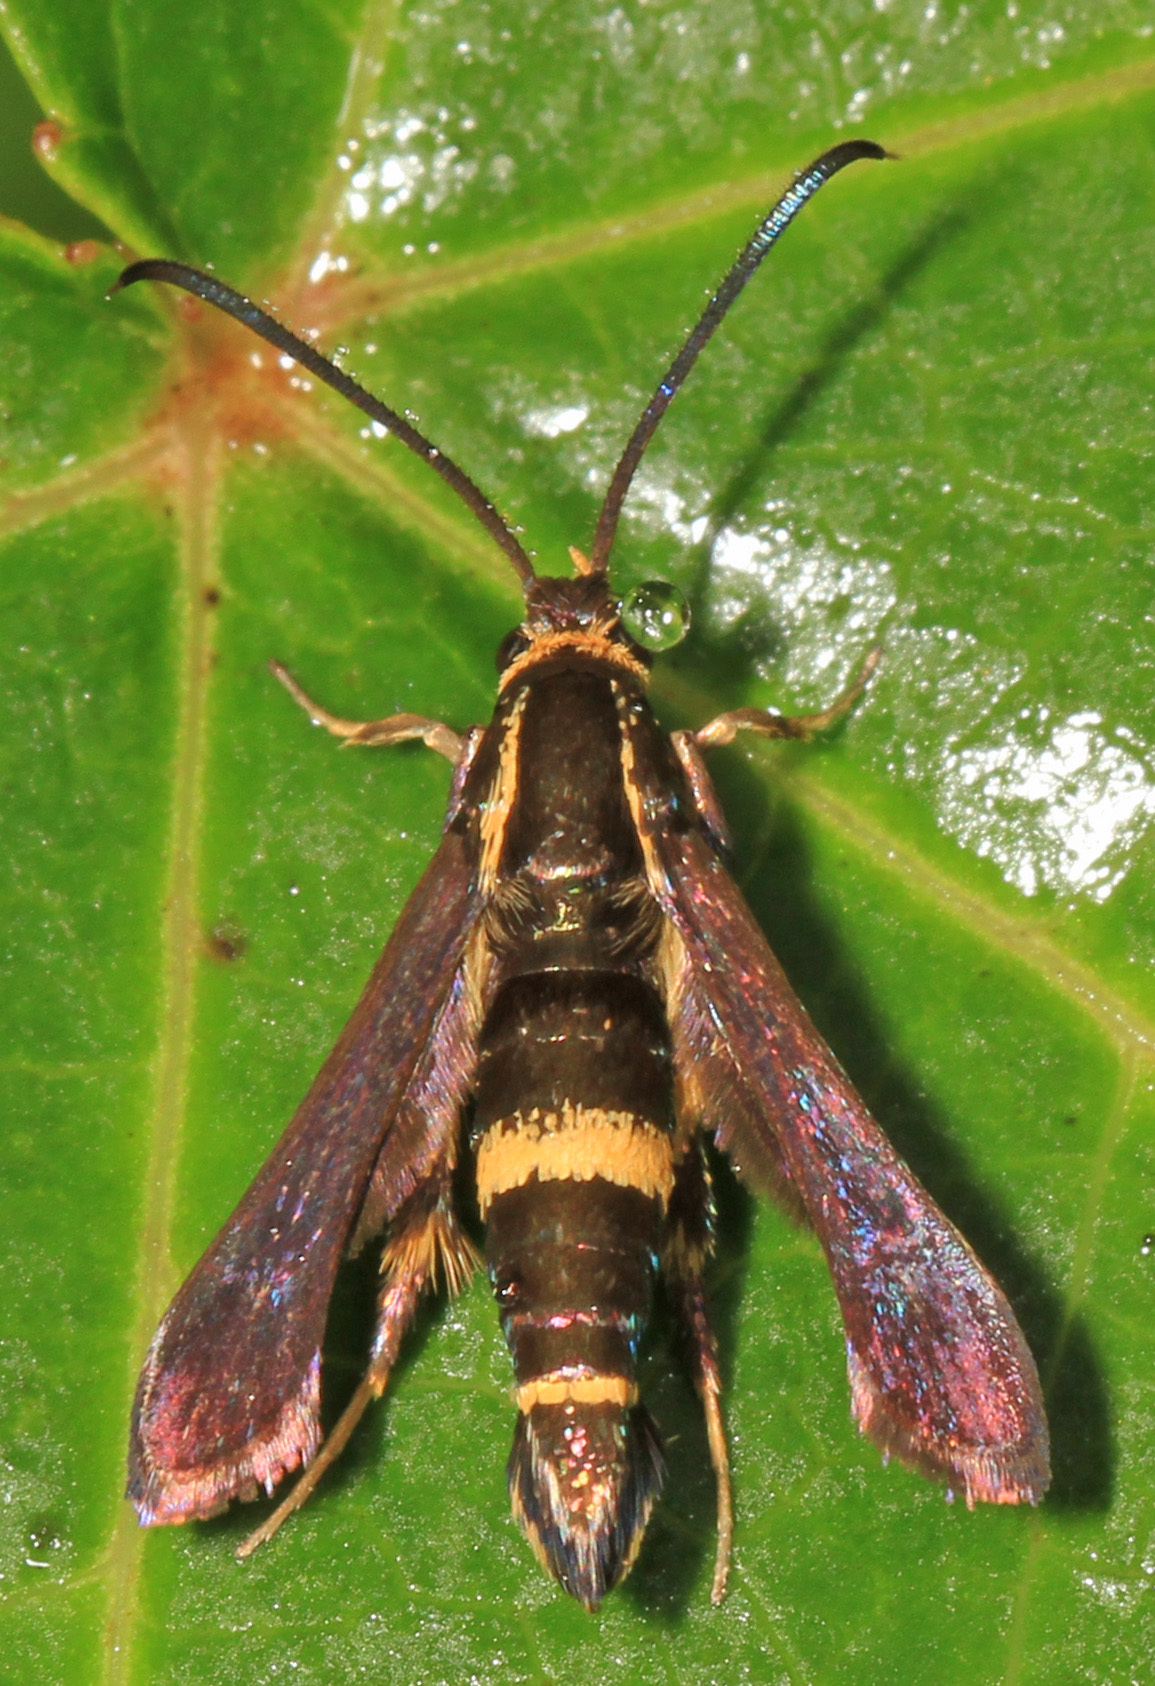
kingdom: Animalia
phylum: Arthropoda
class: Insecta
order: Lepidoptera
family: Sesiidae
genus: Carmenta
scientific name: Carmenta pyralidiformis
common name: Boneset borer moth
